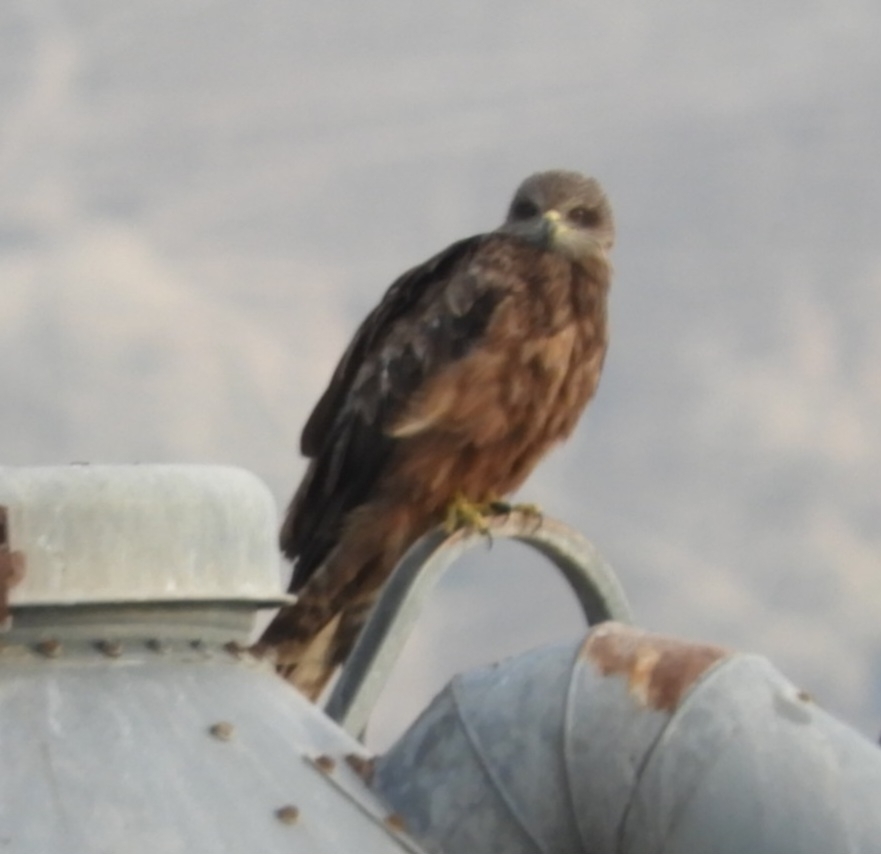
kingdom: Animalia
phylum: Chordata
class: Aves
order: Accipitriformes
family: Accipitridae
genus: Milvus
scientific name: Milvus migrans
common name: Black kite
